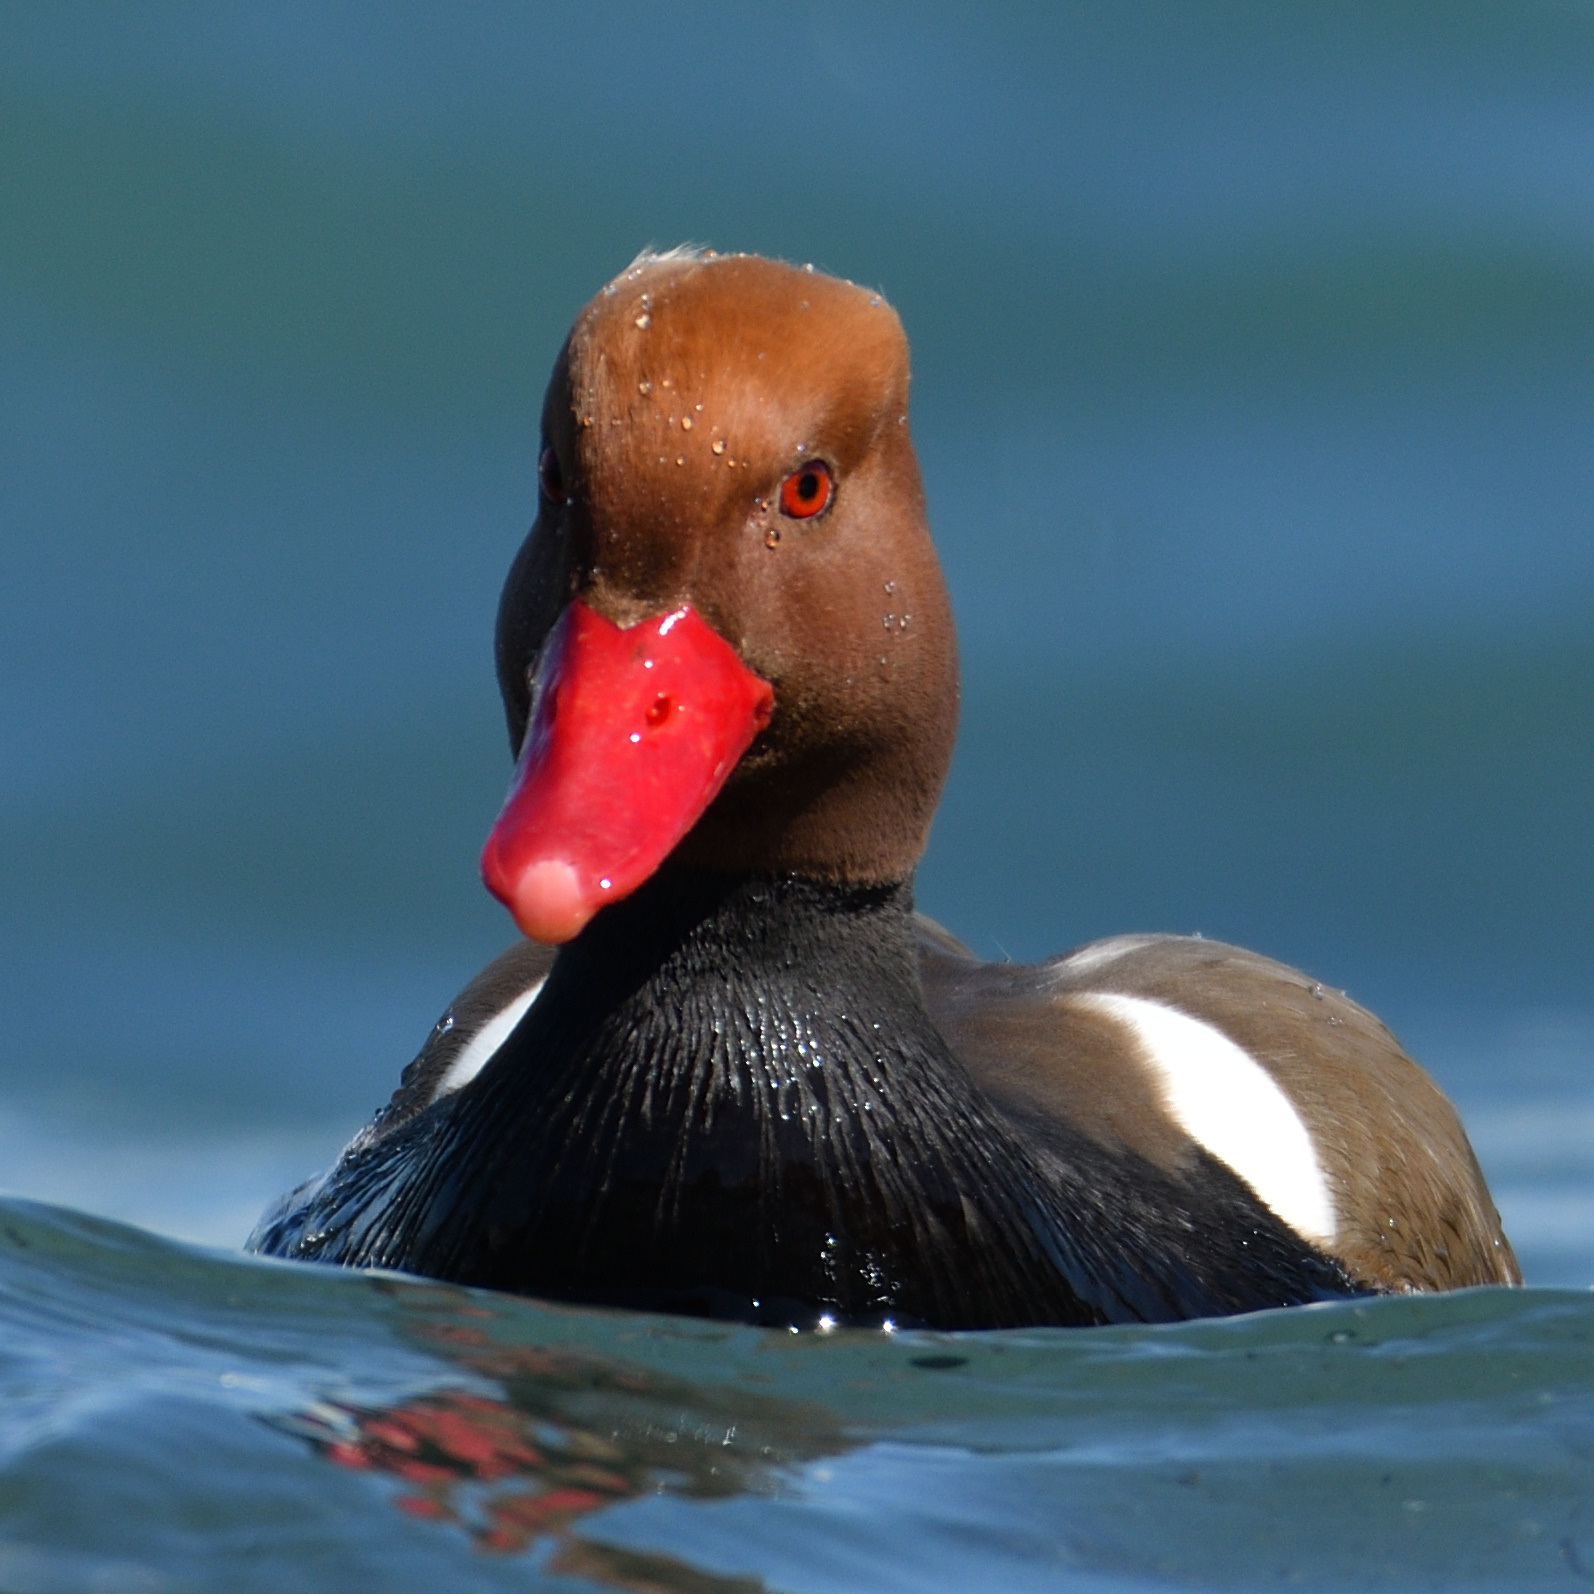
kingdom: Animalia
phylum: Chordata
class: Aves
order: Anseriformes
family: Anatidae
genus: Netta
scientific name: Netta rufina
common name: Red-crested pochard
